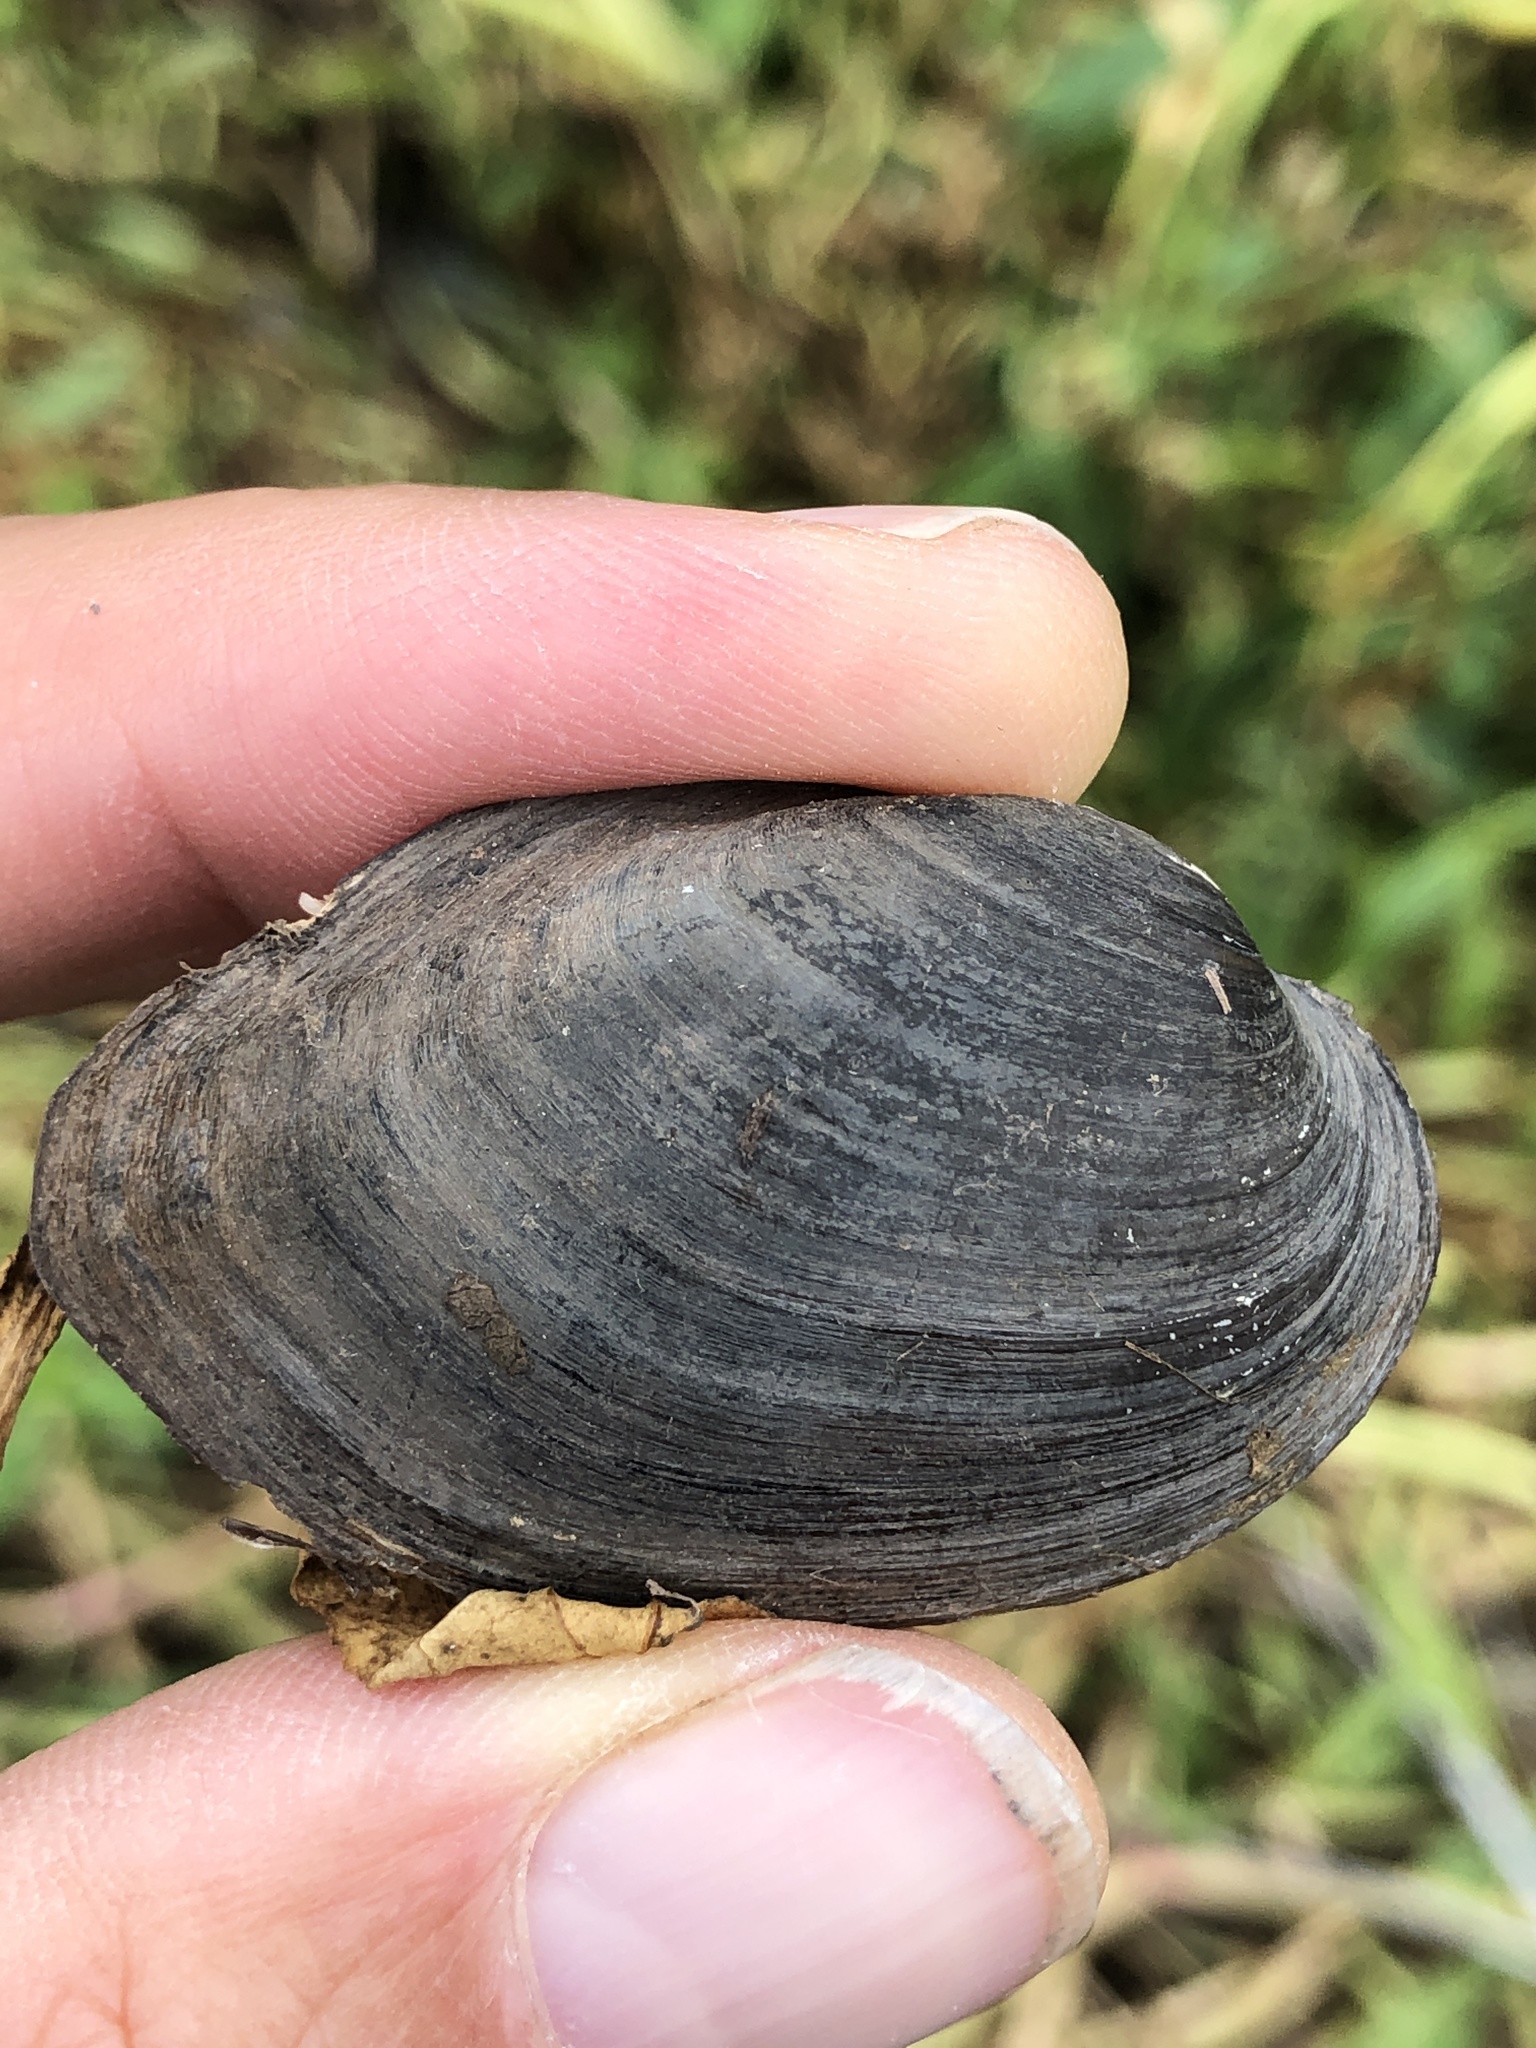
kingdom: Animalia
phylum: Mollusca
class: Bivalvia
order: Unionida
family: Unionidae
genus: Toxolasma
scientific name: Toxolasma texasiense
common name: Texas lilliput
